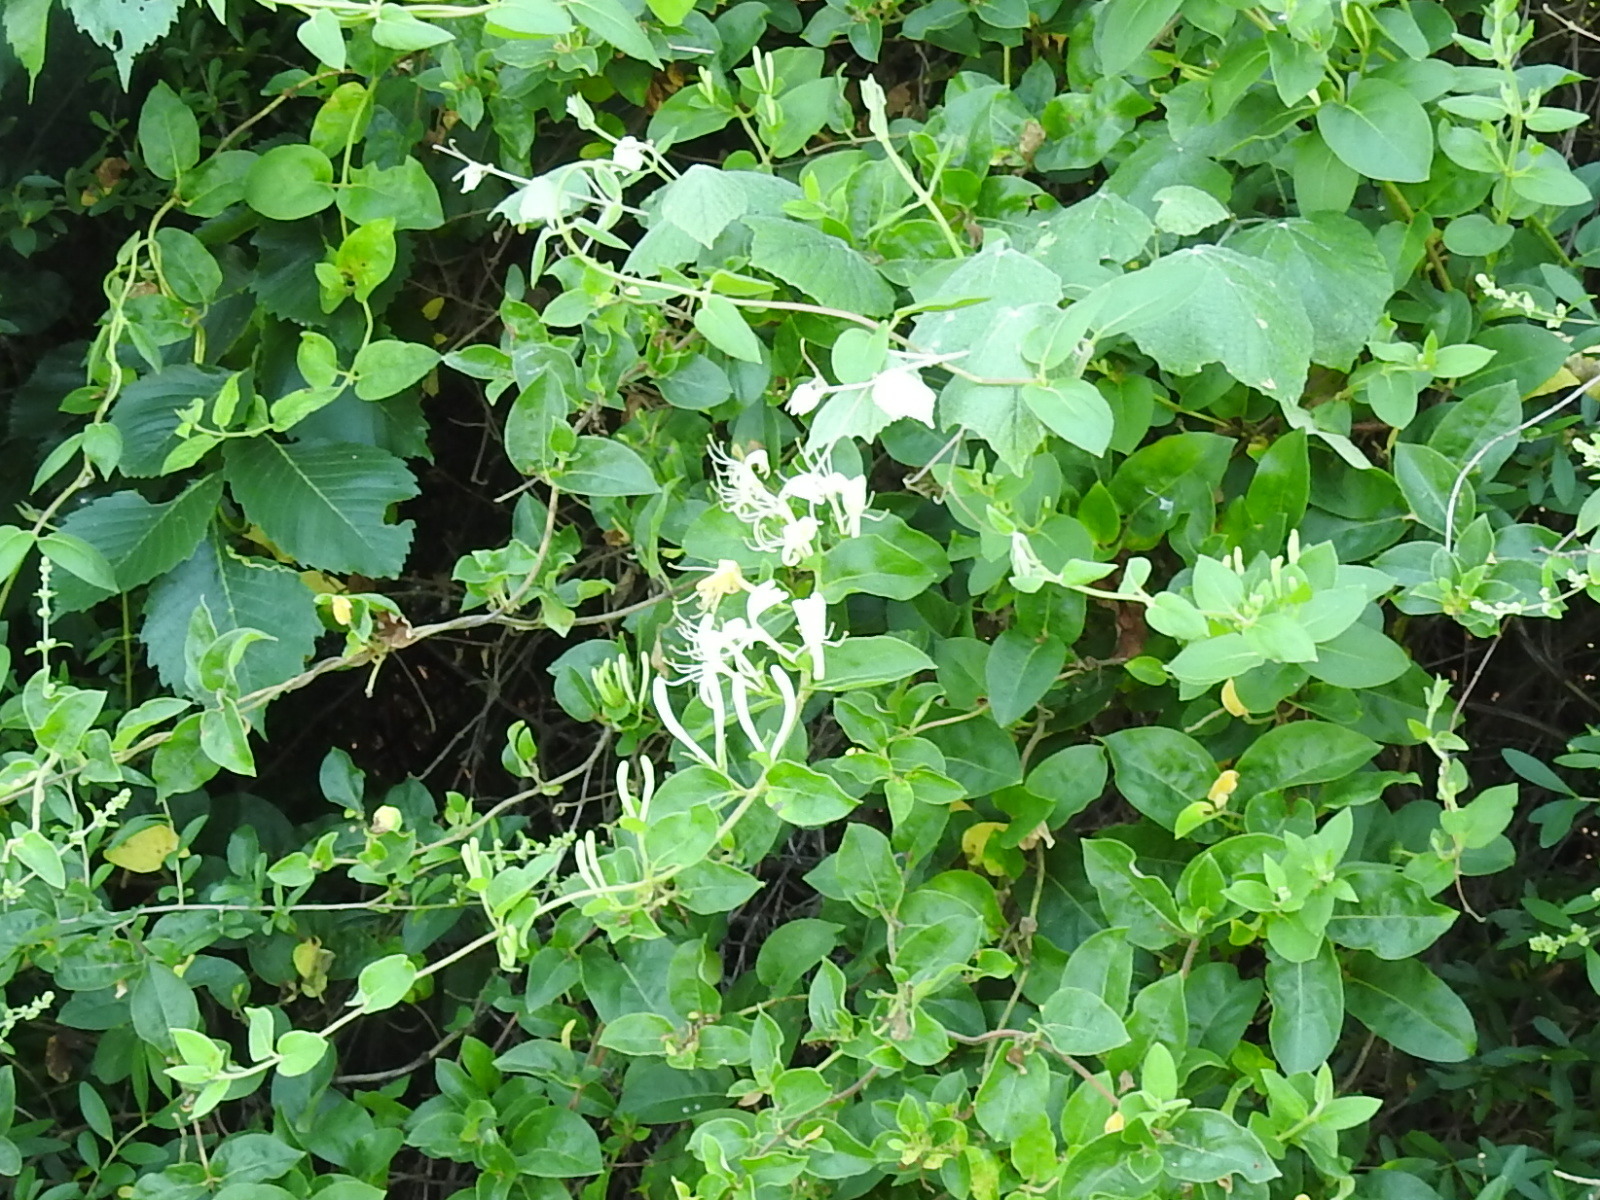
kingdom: Plantae
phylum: Tracheophyta
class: Magnoliopsida
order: Dipsacales
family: Caprifoliaceae
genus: Lonicera
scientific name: Lonicera japonica
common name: Japanese honeysuckle
